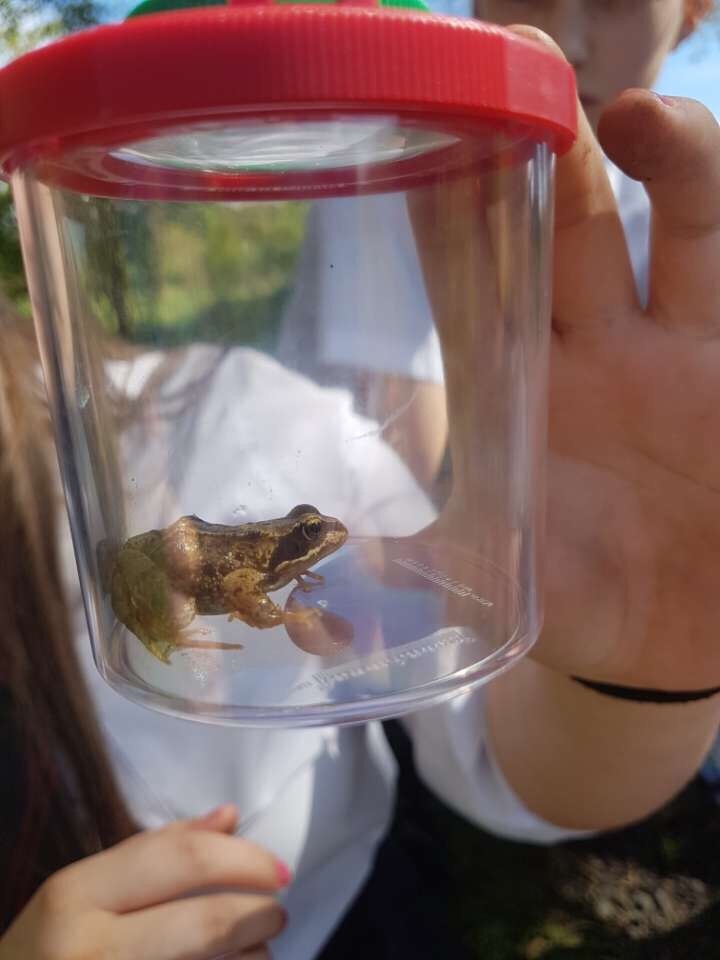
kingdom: Animalia
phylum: Chordata
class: Amphibia
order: Anura
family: Ranidae
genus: Rana
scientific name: Rana temporaria
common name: Common frog
